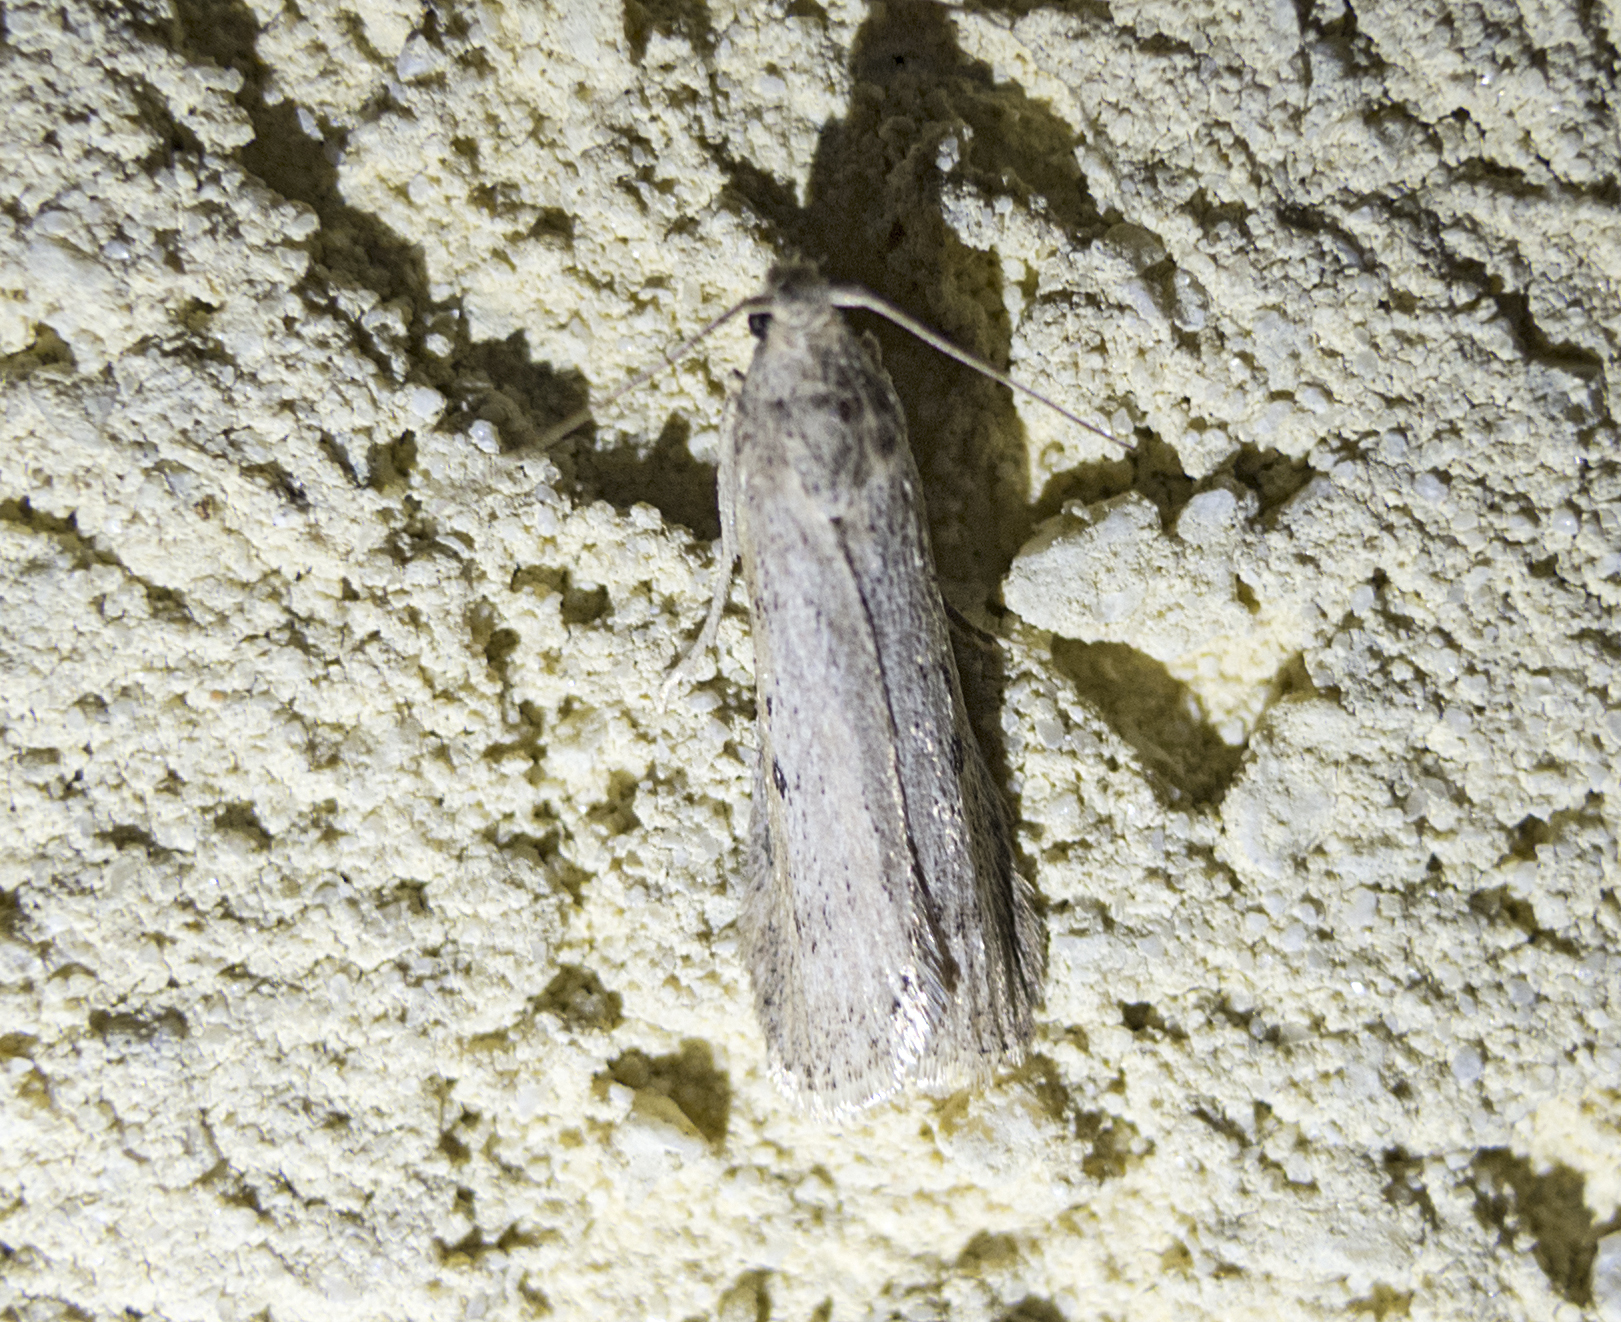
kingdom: Animalia
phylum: Arthropoda
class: Insecta
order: Lepidoptera
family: Pyralidae
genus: Lamoria
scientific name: Lamoria anella
